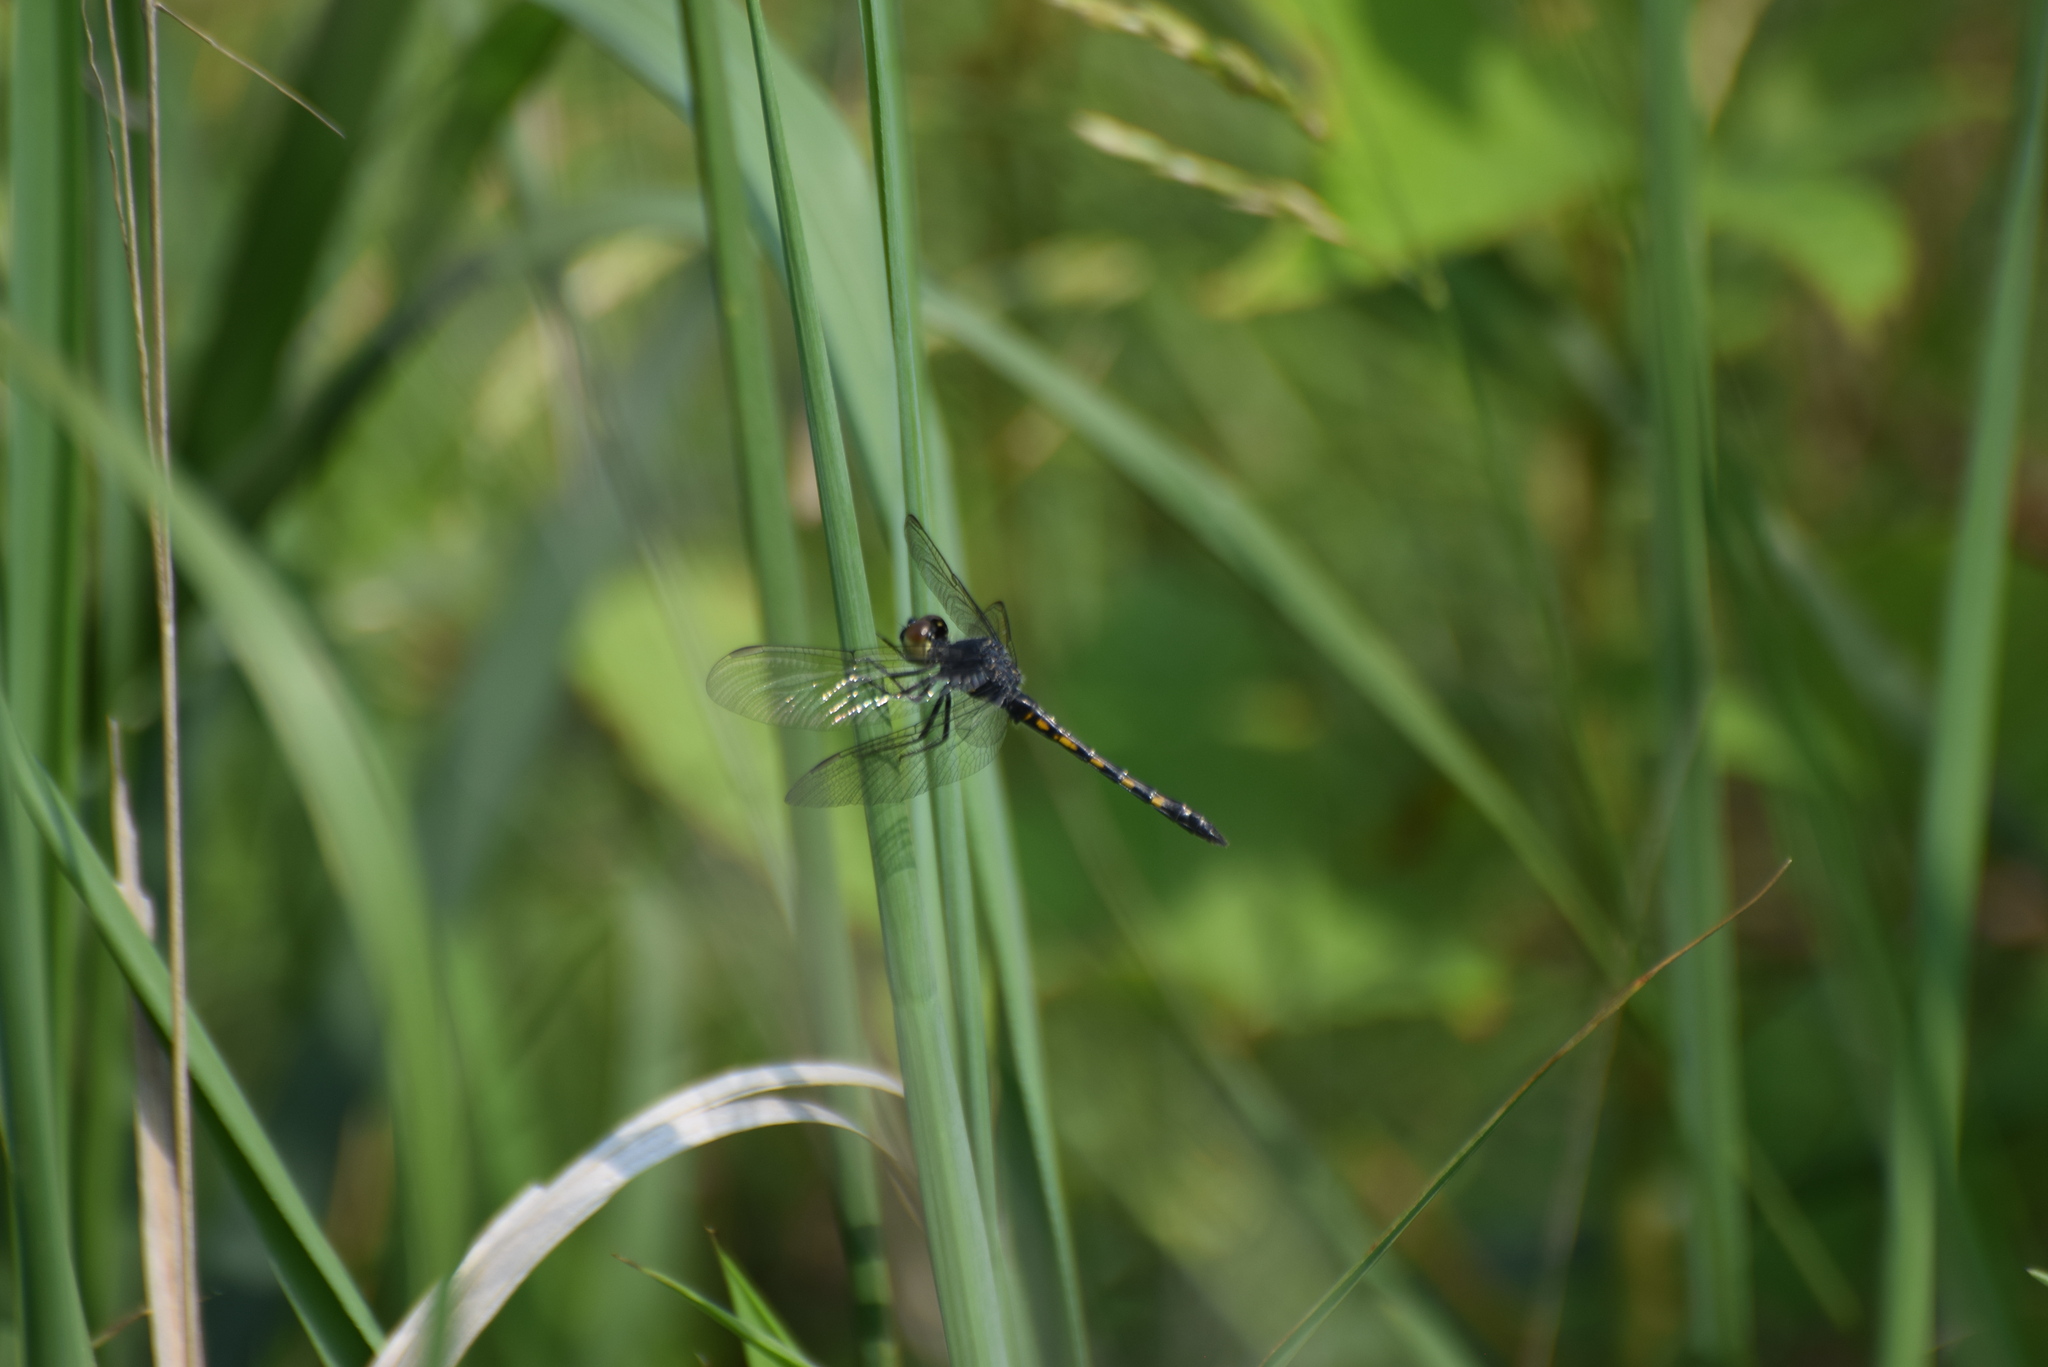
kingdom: Animalia
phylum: Arthropoda
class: Insecta
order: Odonata
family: Libellulidae
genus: Erythrodiplax
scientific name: Erythrodiplax berenice
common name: Seaside dragonlet
